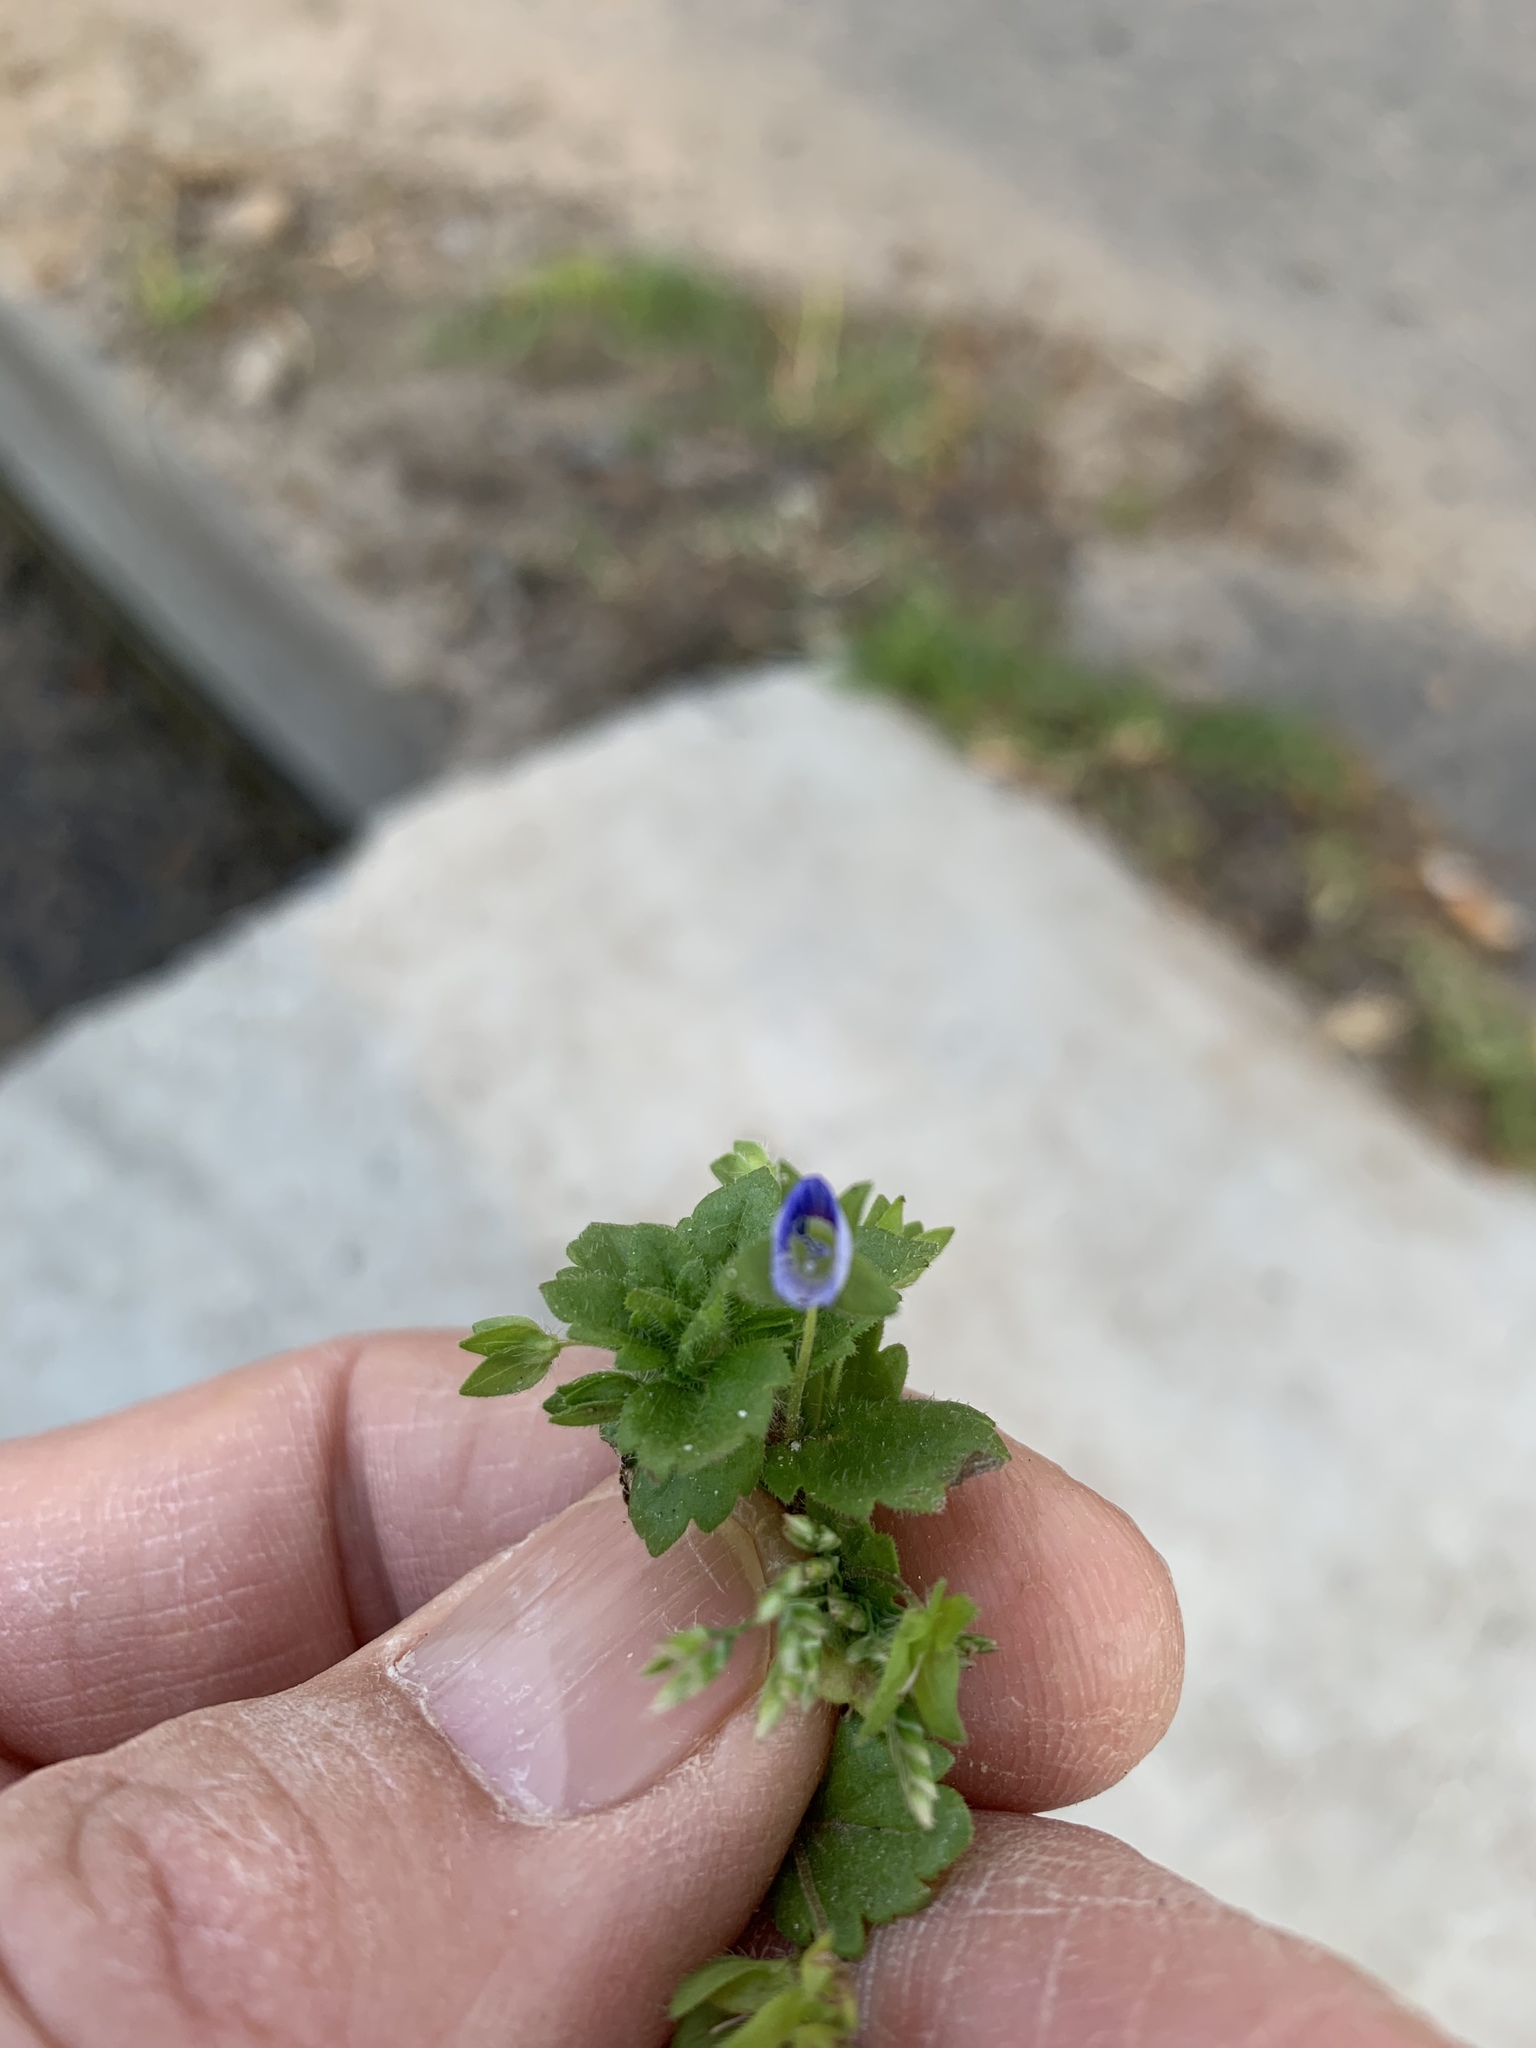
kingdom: Plantae
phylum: Tracheophyta
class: Magnoliopsida
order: Lamiales
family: Plantaginaceae
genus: Veronica
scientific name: Veronica persica
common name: Common field-speedwell
